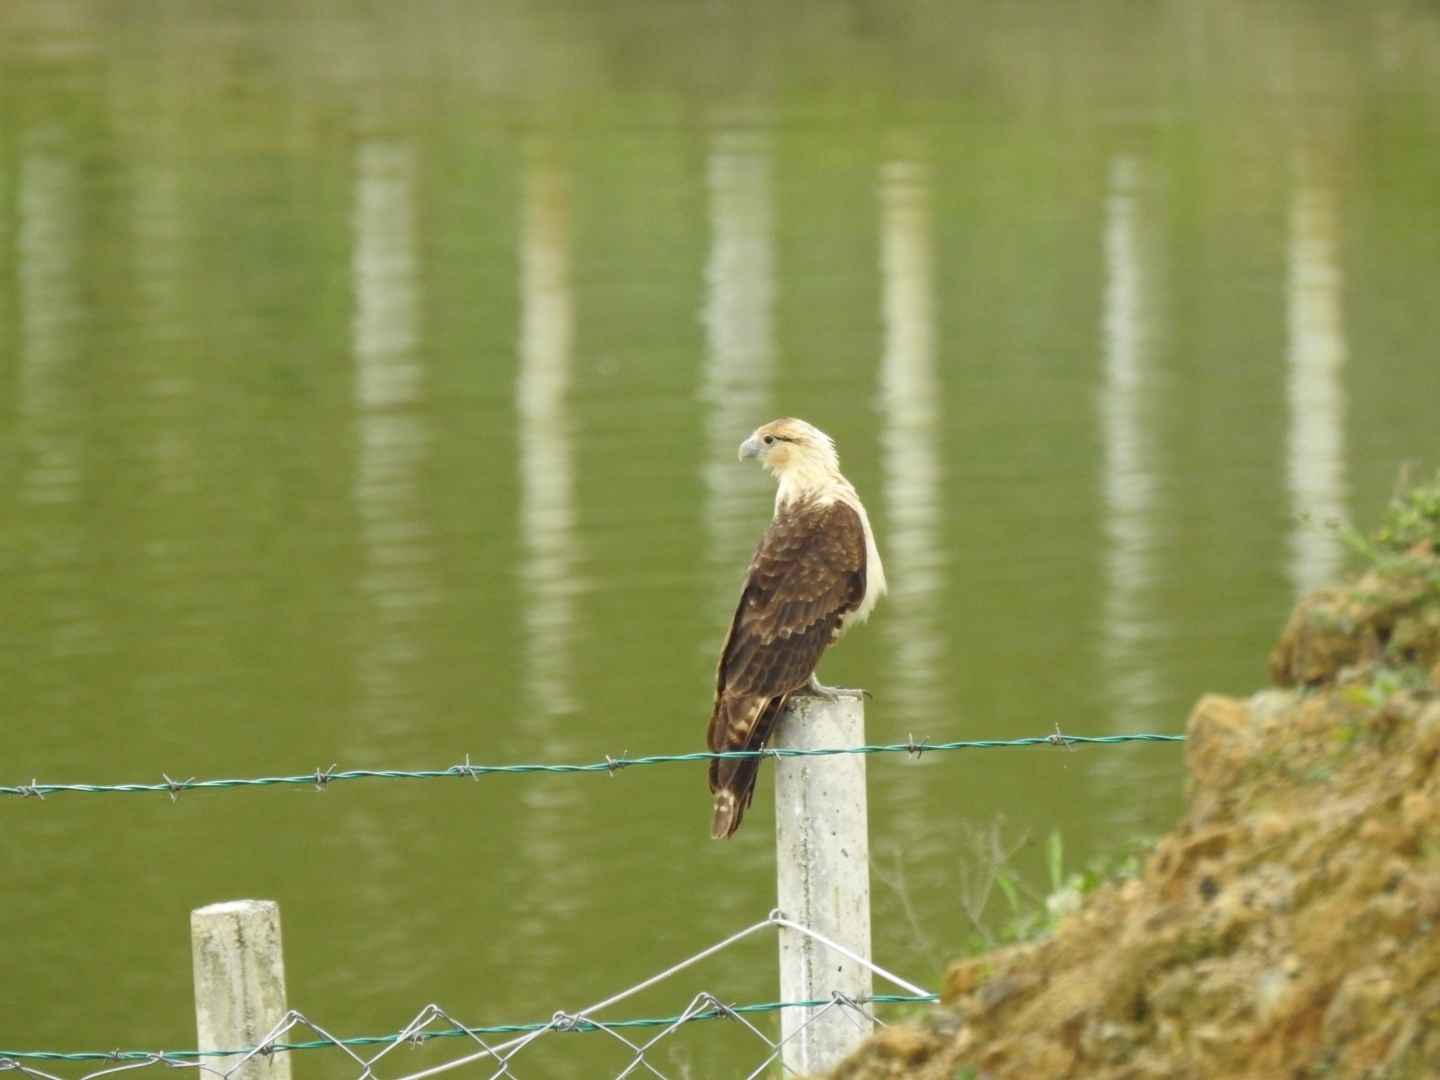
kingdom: Animalia
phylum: Chordata
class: Aves
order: Falconiformes
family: Falconidae
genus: Daptrius
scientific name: Daptrius
